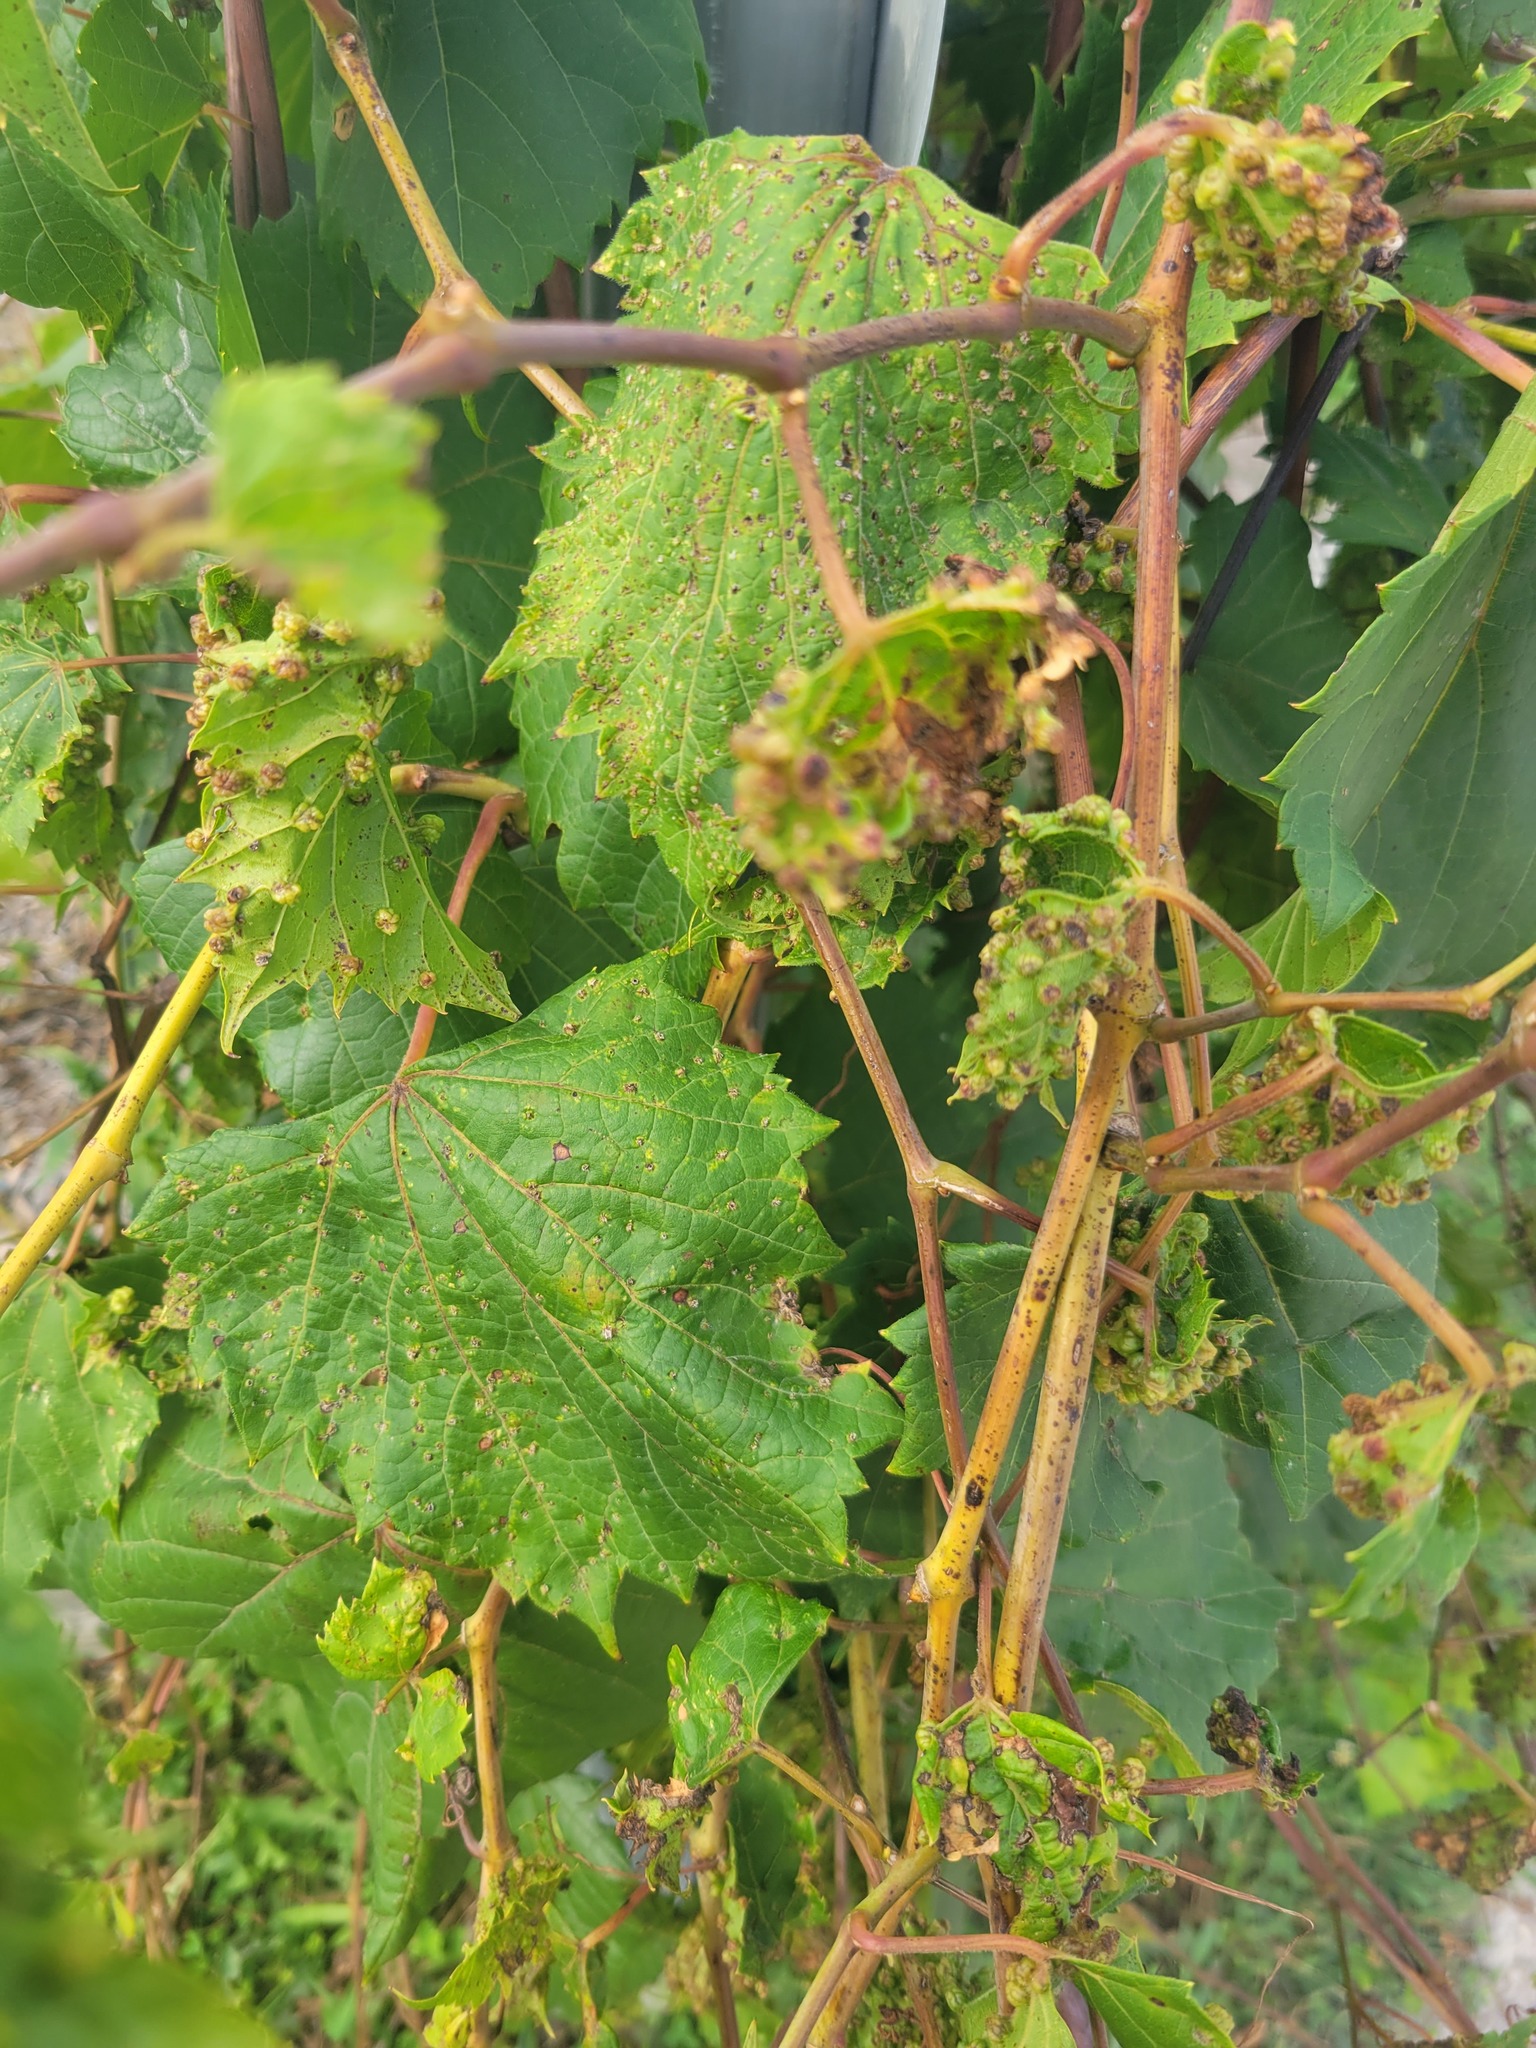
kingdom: Plantae
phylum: Tracheophyta
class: Magnoliopsida
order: Vitales
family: Vitaceae
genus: Vitis
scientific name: Vitis riparia
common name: Frost grape
